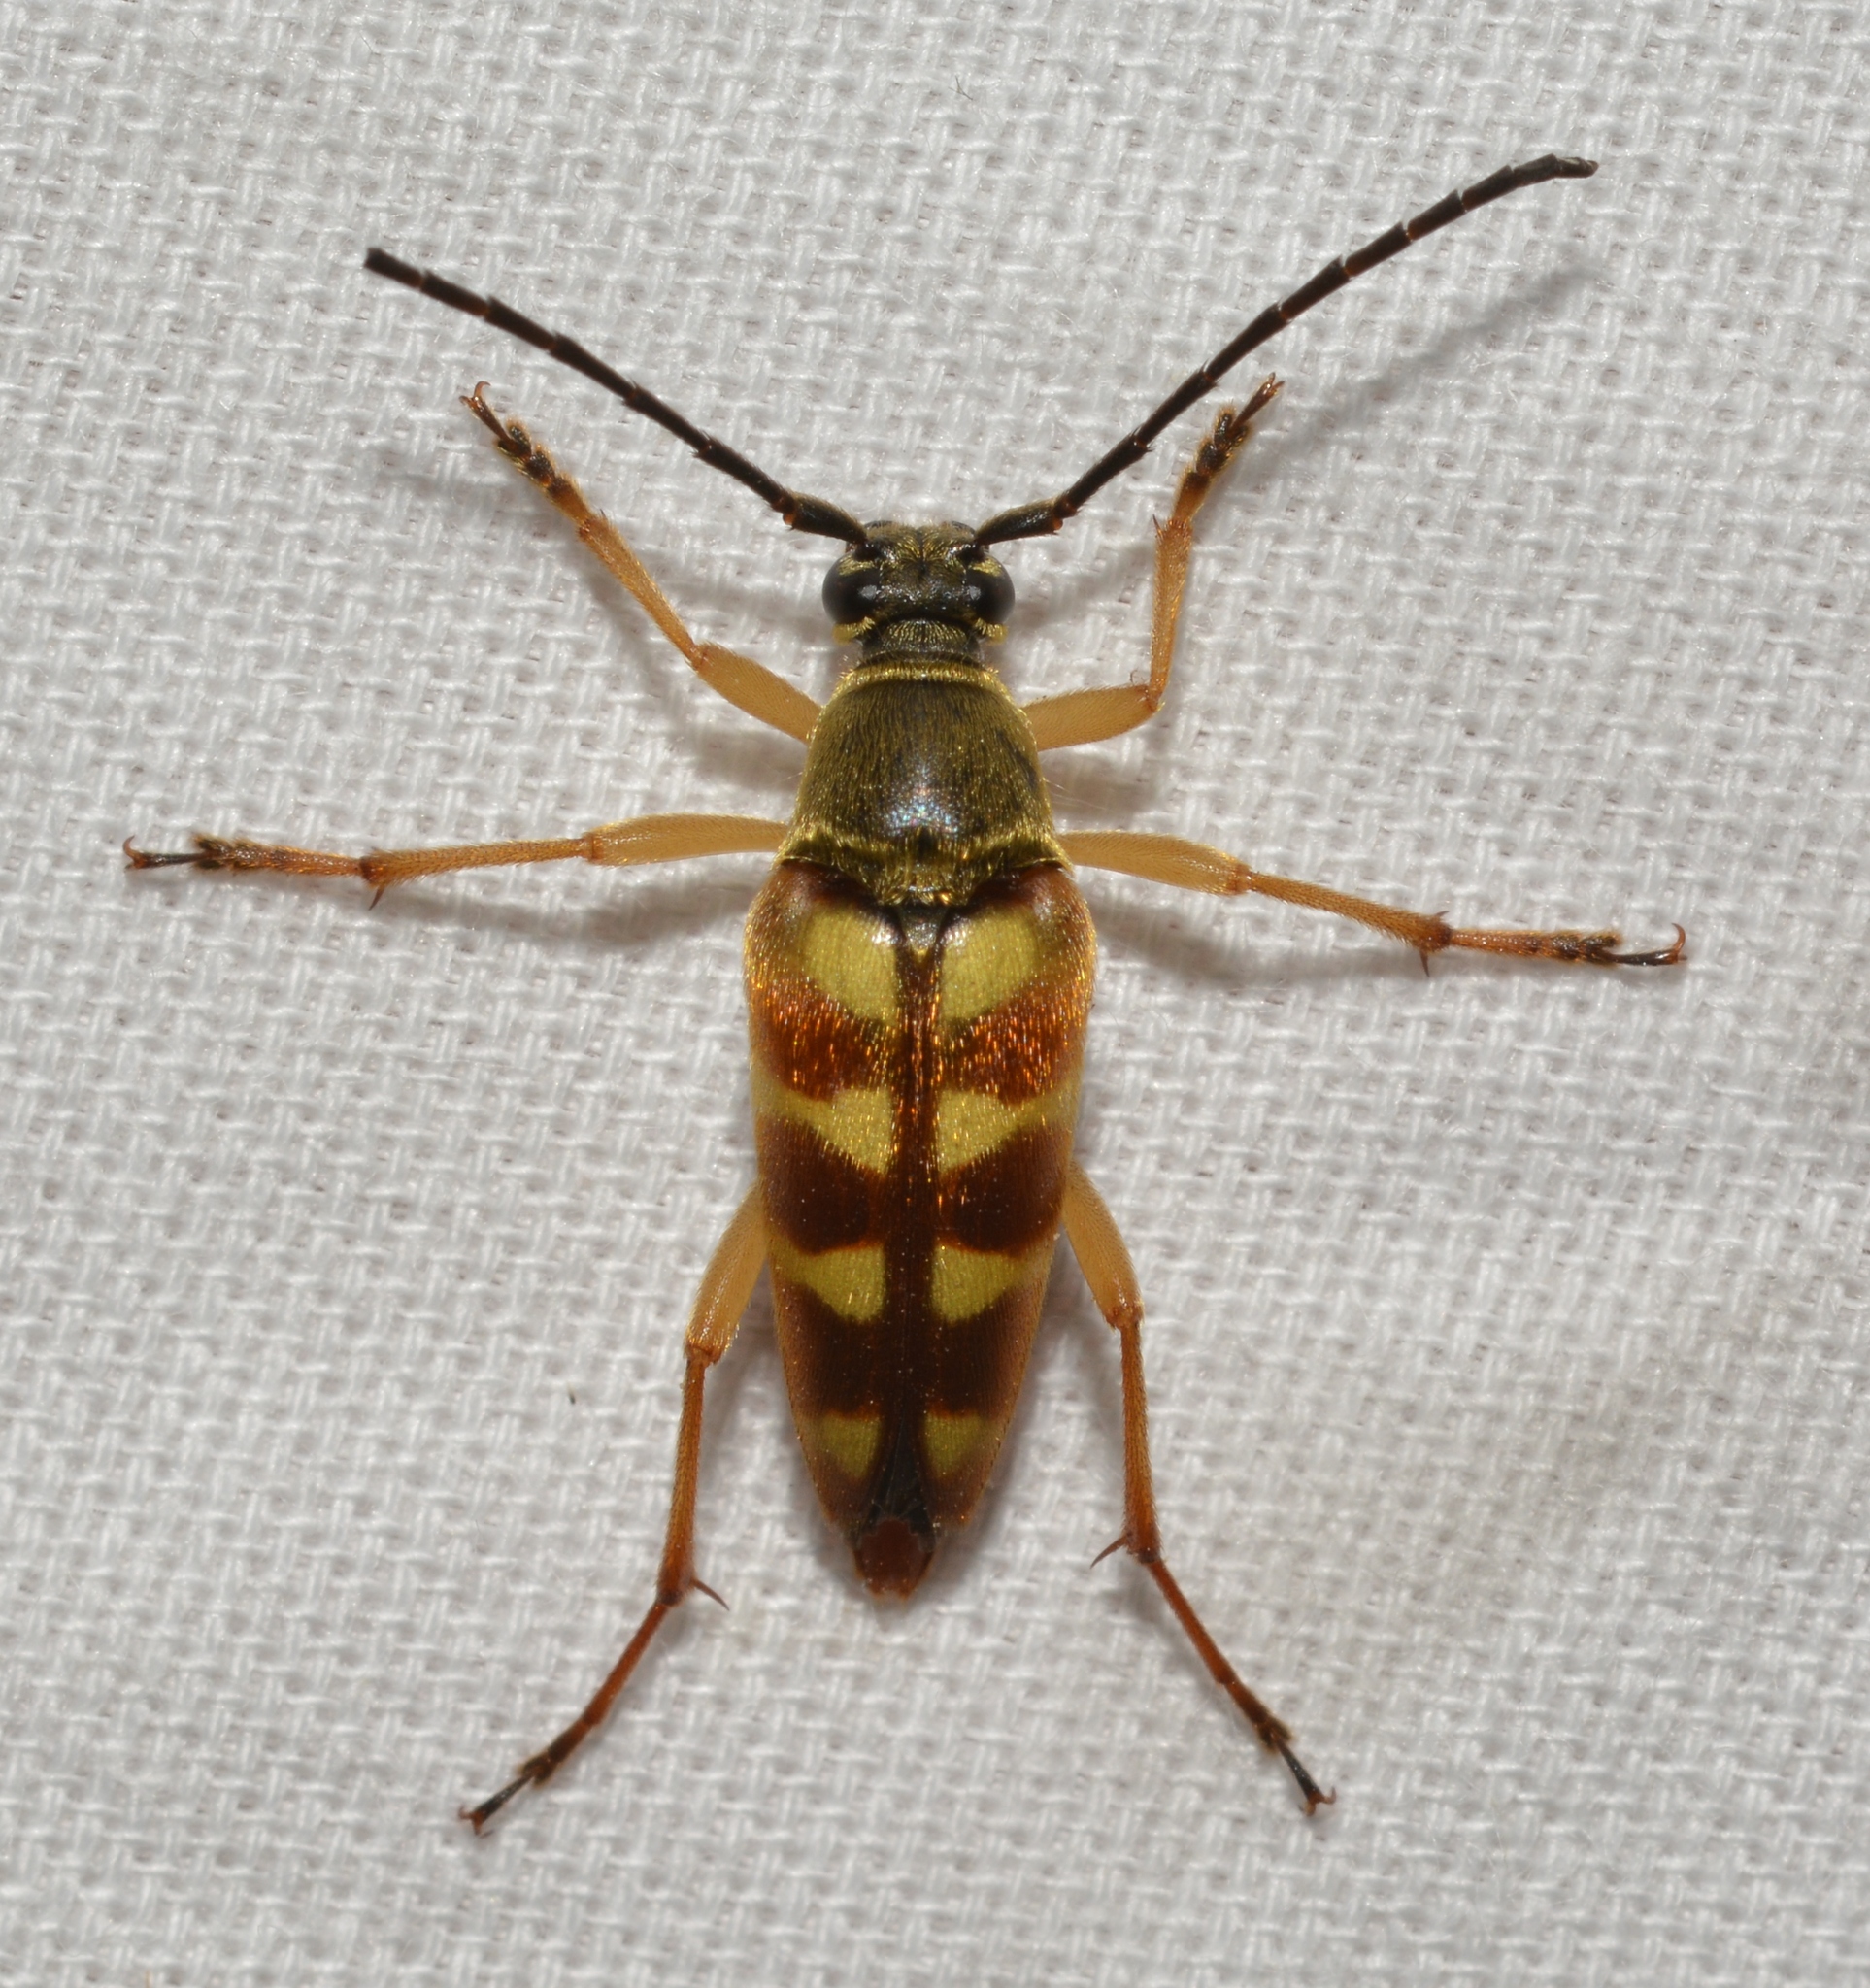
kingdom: Animalia
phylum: Arthropoda
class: Insecta
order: Coleoptera
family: Cerambycidae
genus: Typocerus
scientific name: Typocerus velutinus
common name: Banded longhorn beetle
